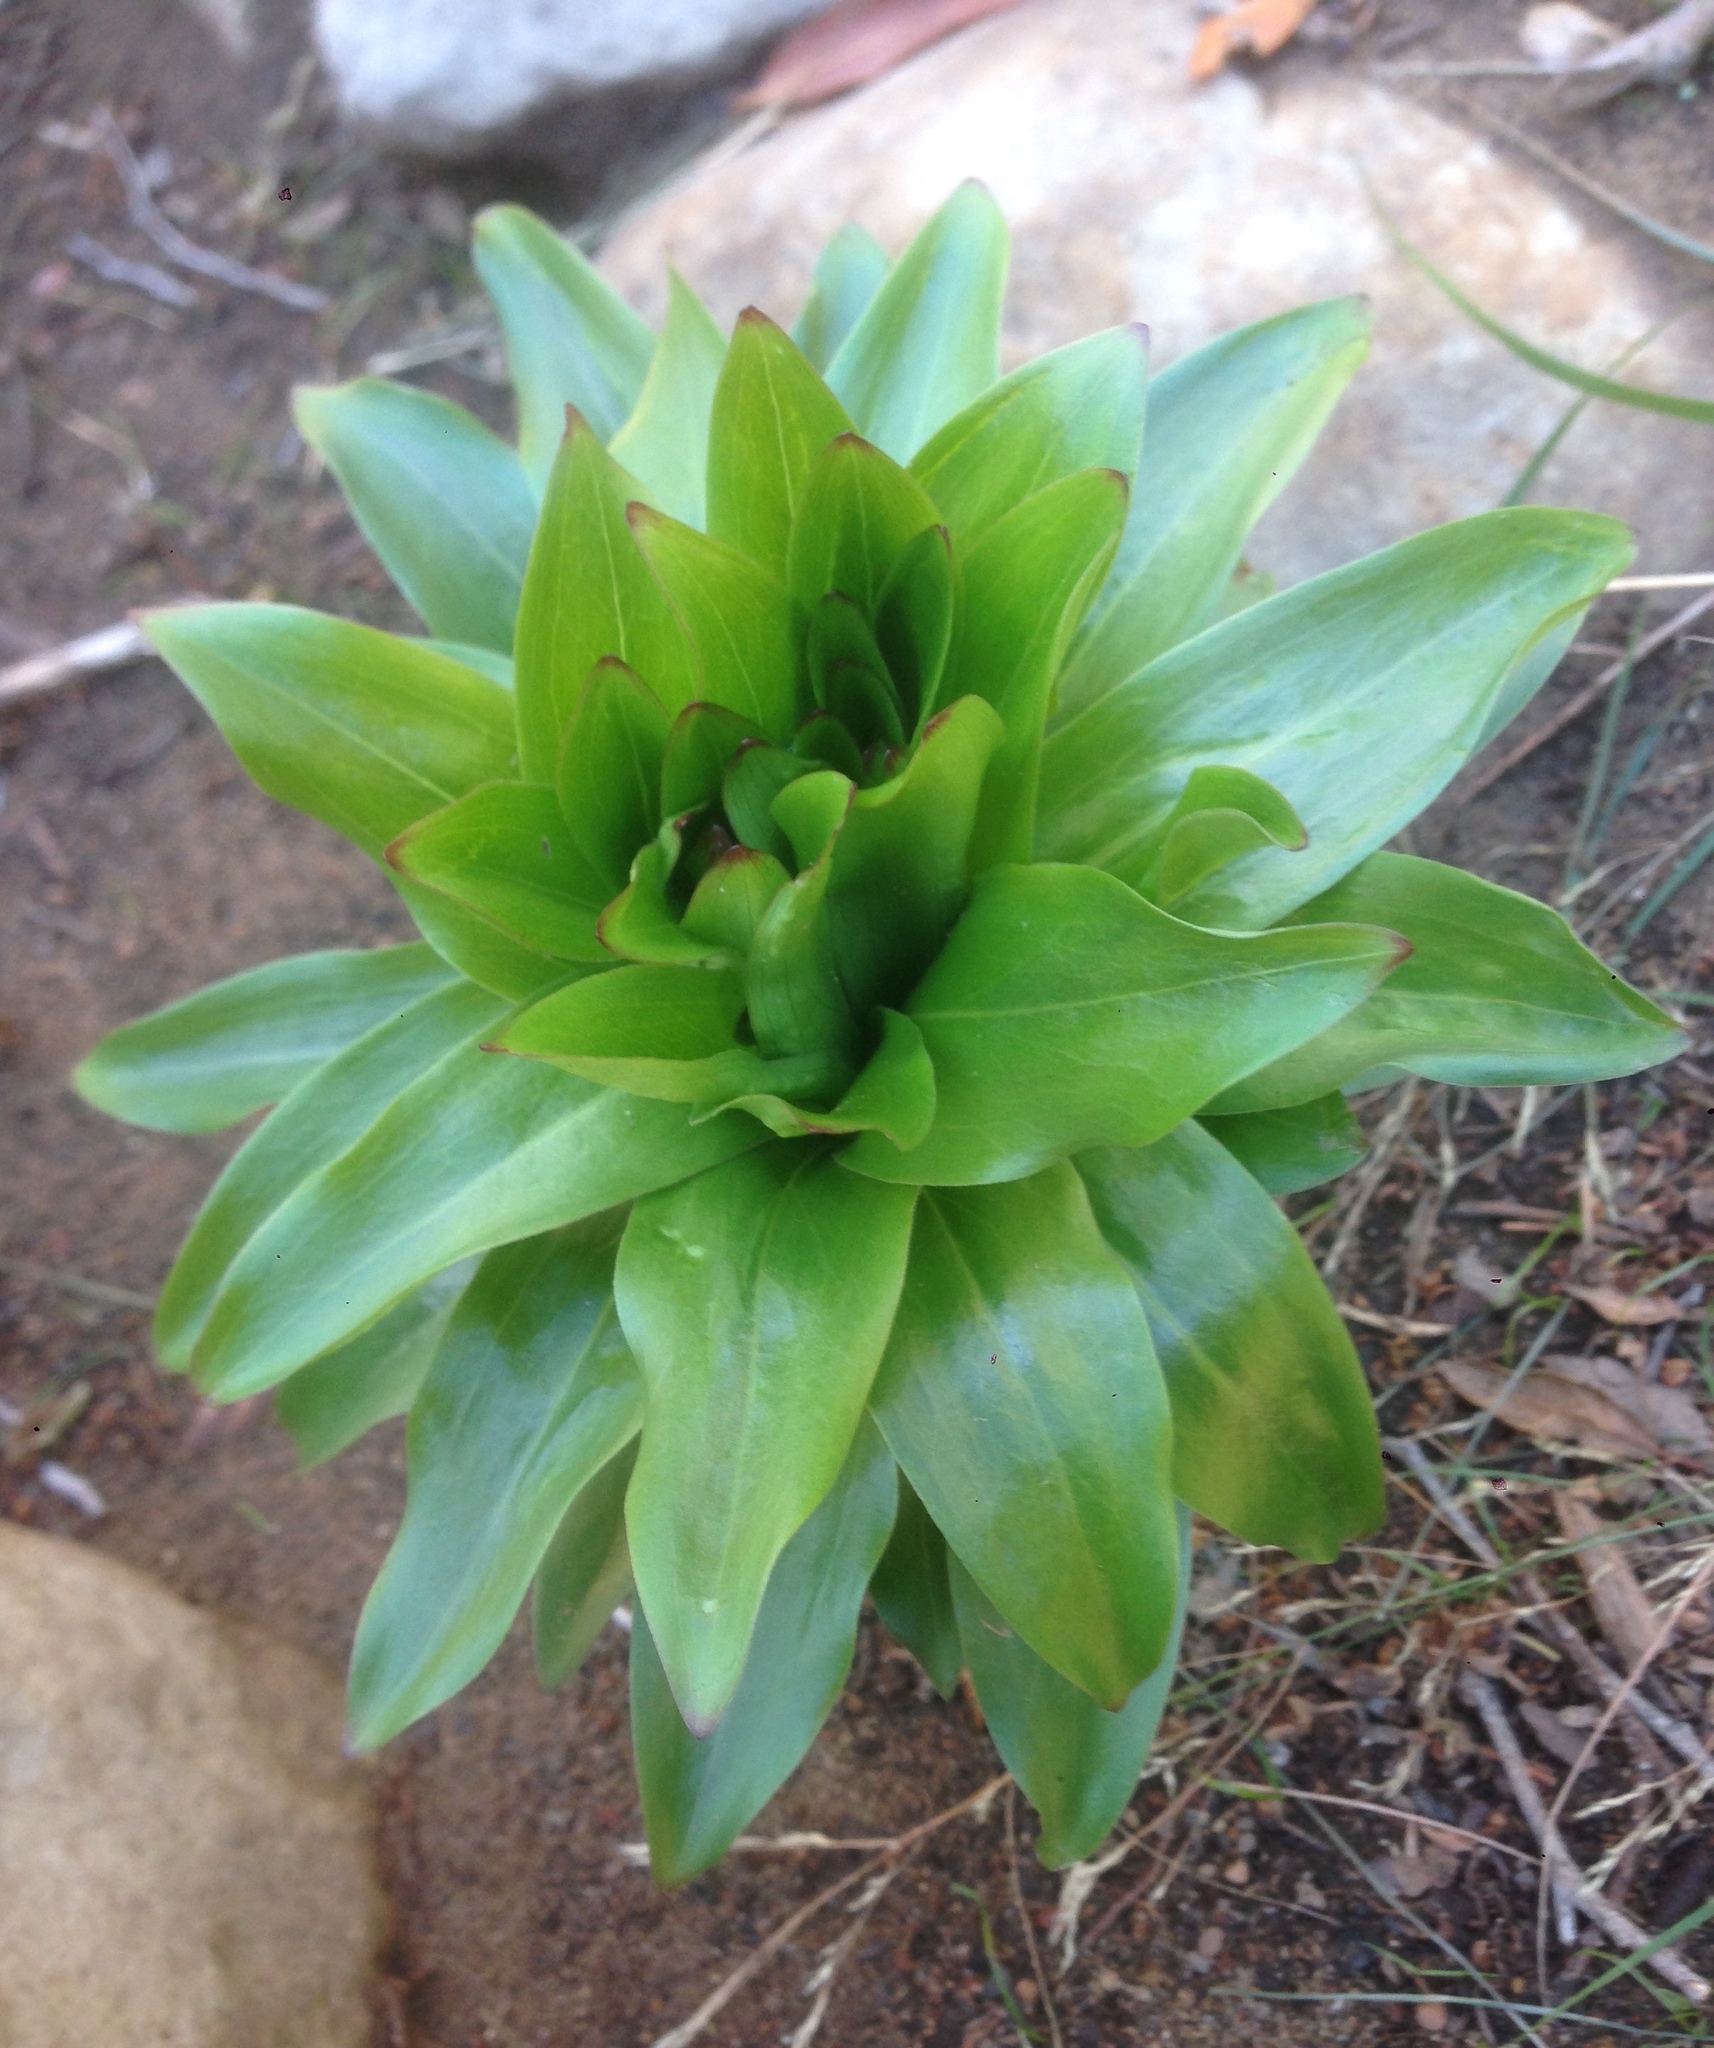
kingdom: Plantae
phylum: Tracheophyta
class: Liliopsida
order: Liliales
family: Liliaceae
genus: Lilium
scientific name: Lilium humboldtii
